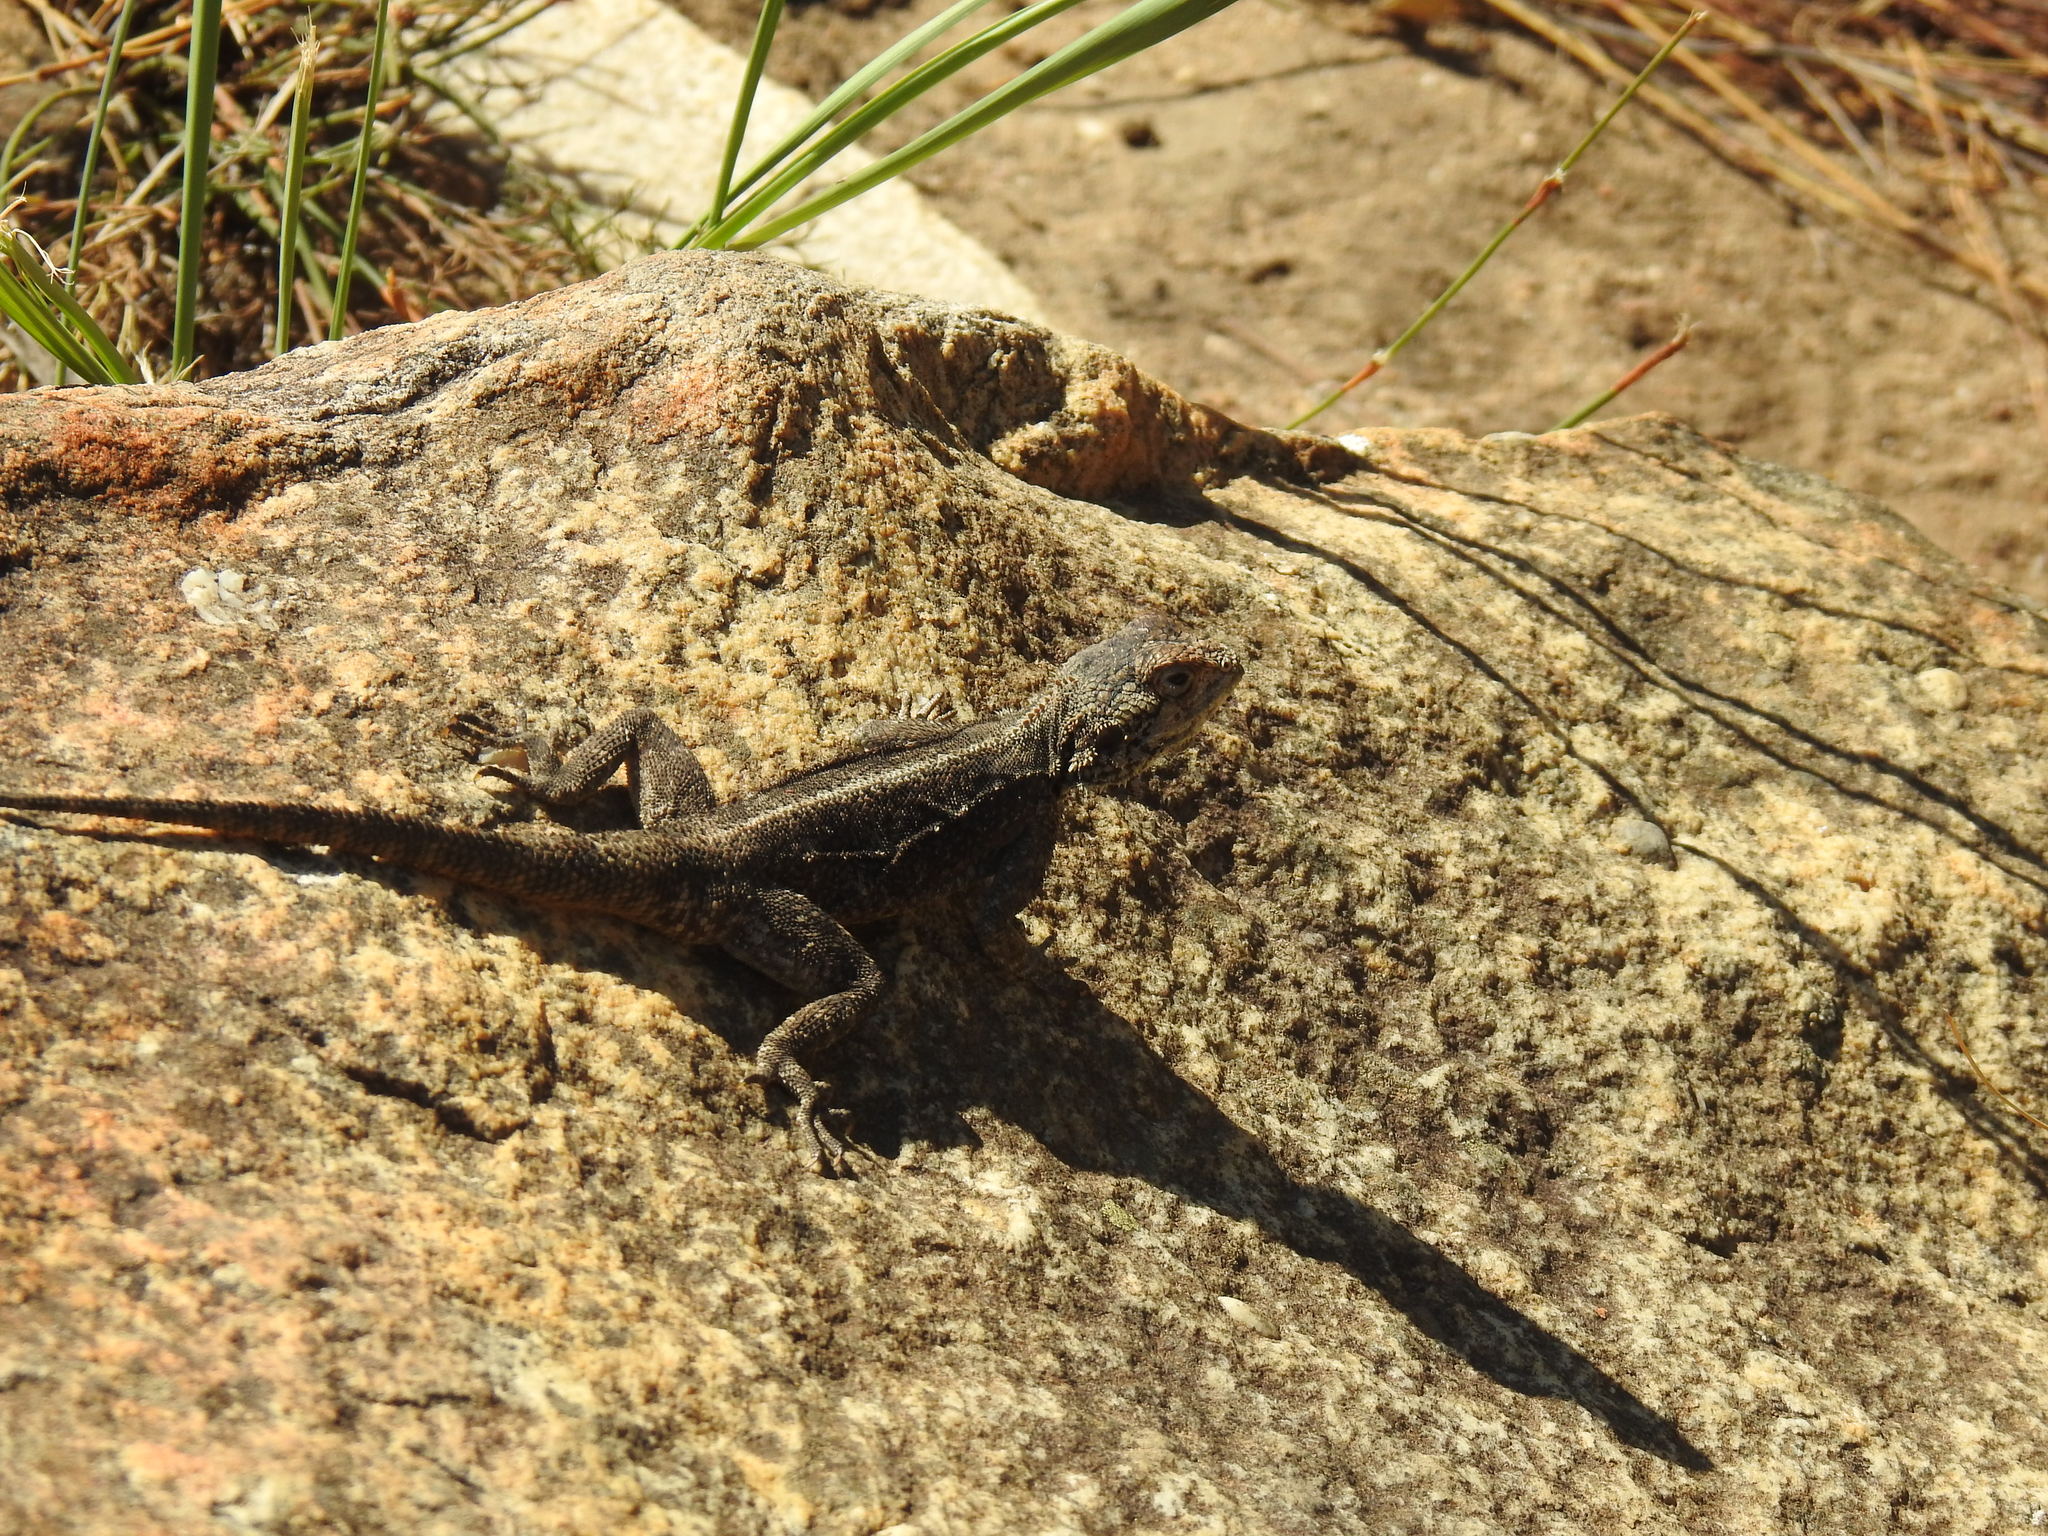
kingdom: Animalia
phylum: Chordata
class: Squamata
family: Agamidae
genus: Agama
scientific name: Agama atra
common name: Southern african rock agama
